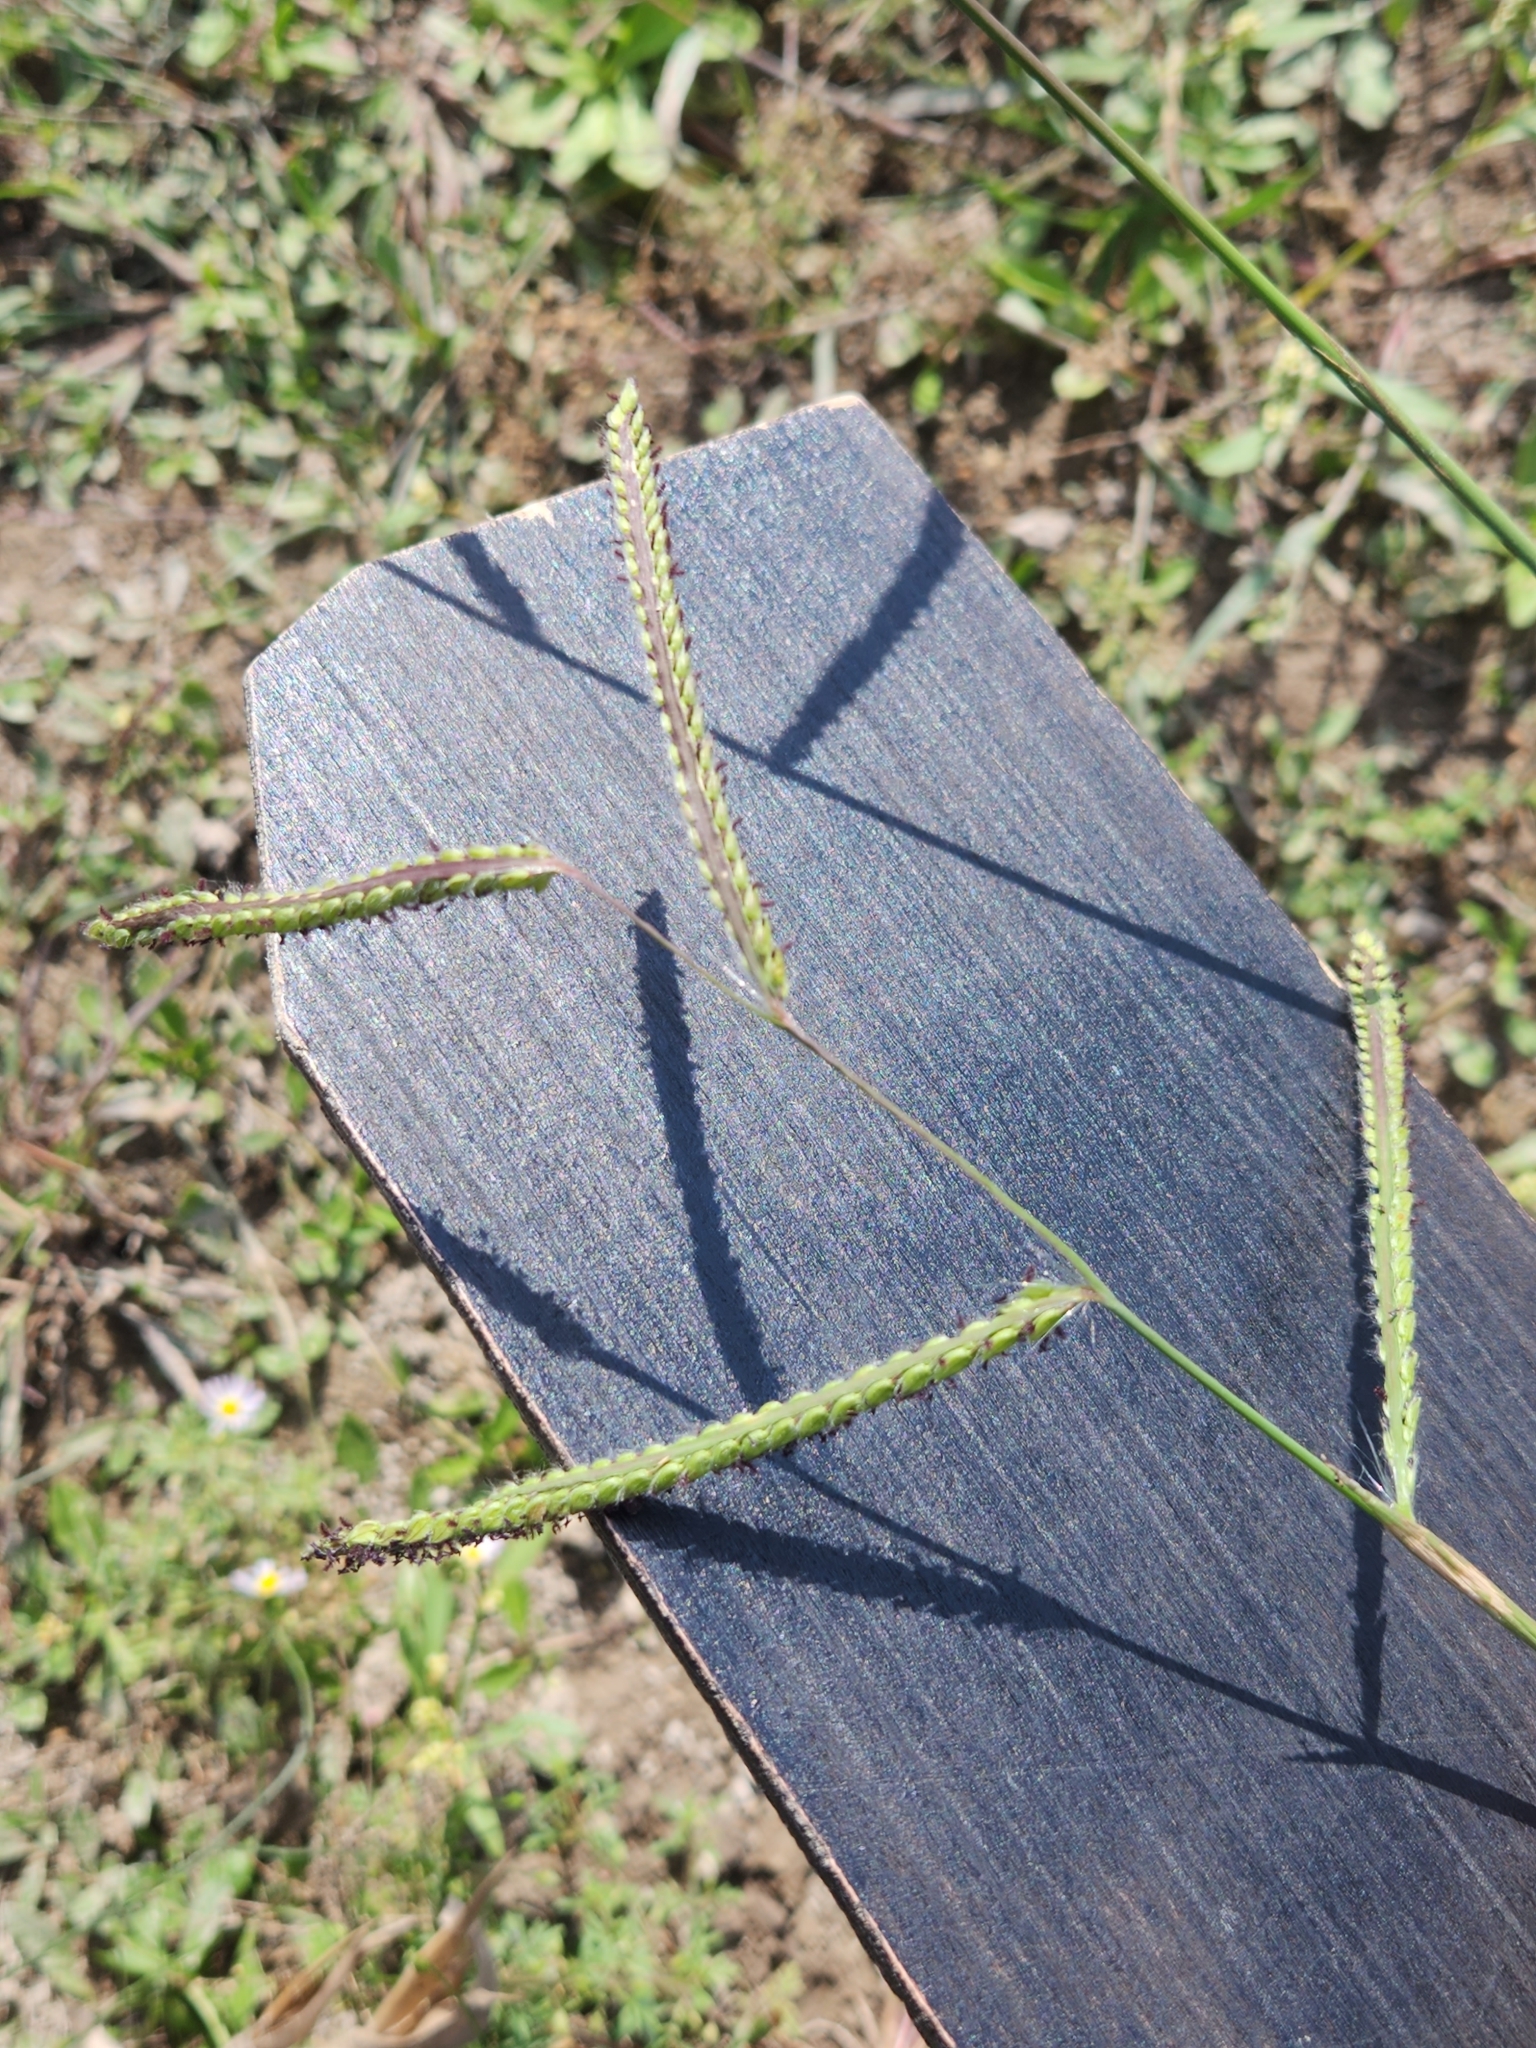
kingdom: Plantae
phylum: Tracheophyta
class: Liliopsida
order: Poales
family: Poaceae
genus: Paspalum
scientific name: Paspalum dilatatum
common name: Dallisgrass
